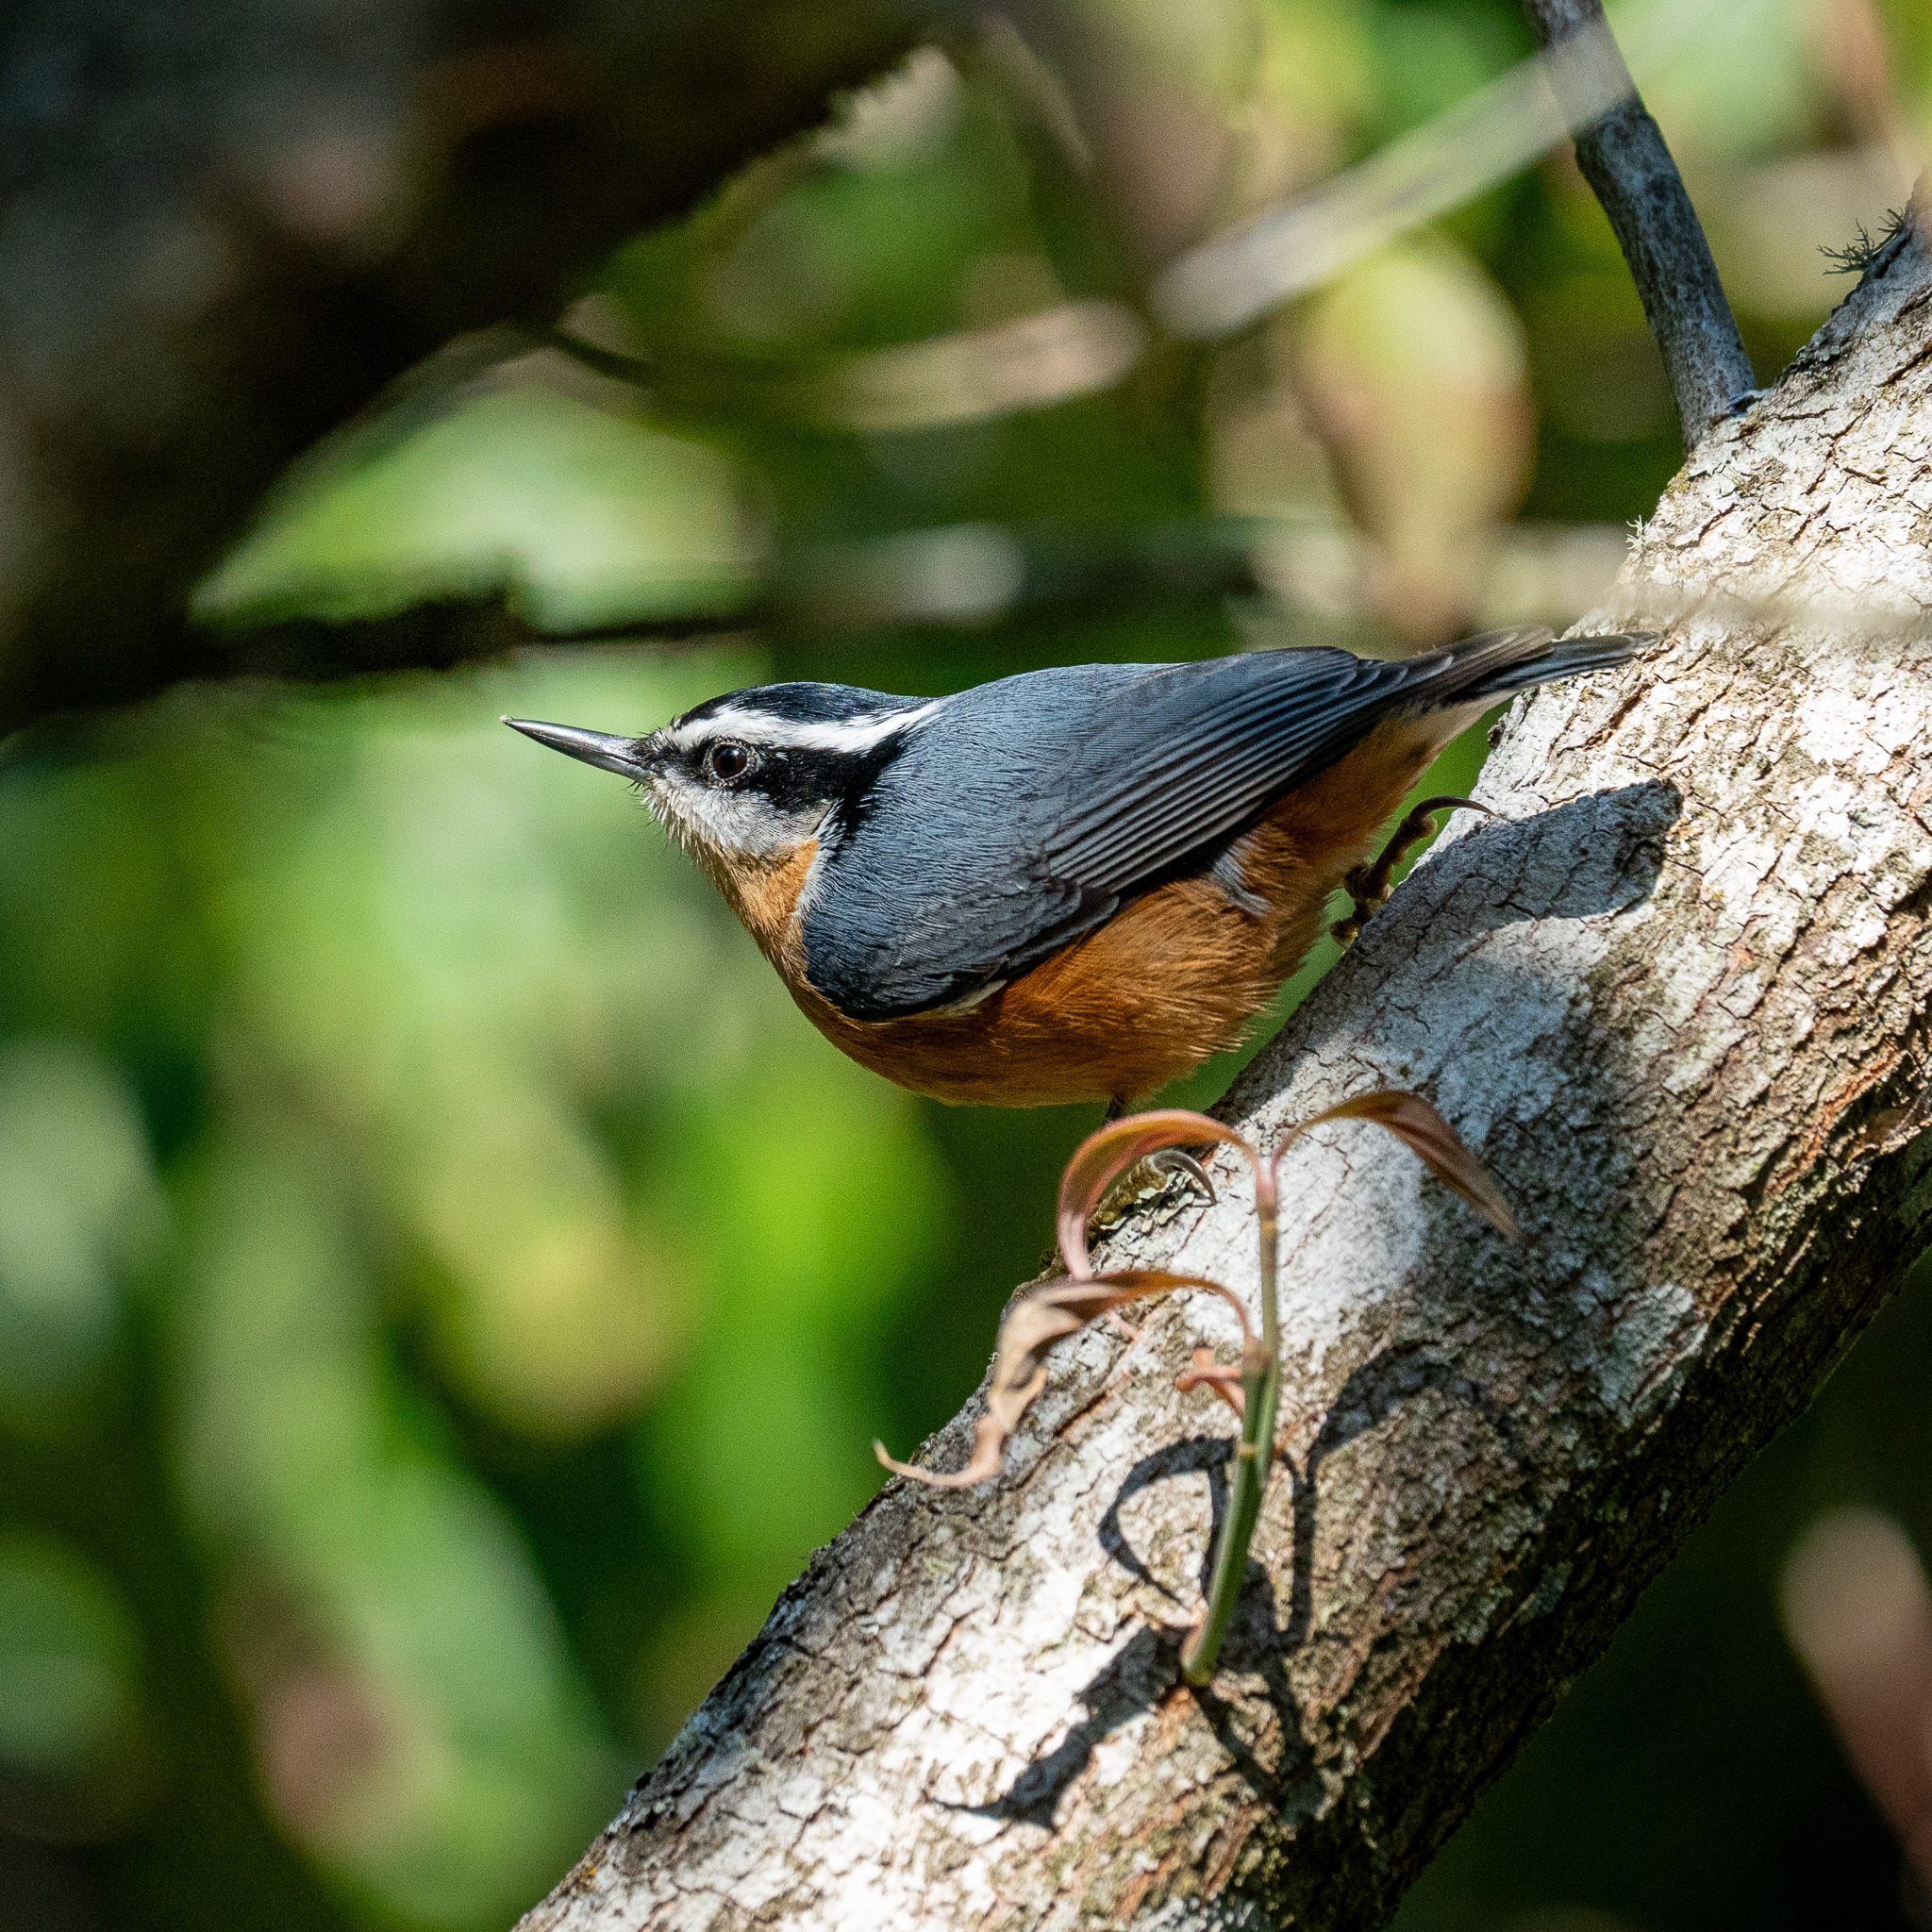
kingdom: Animalia
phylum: Chordata
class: Aves
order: Passeriformes
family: Sittidae
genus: Sitta
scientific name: Sitta canadensis
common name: Red-breasted nuthatch
